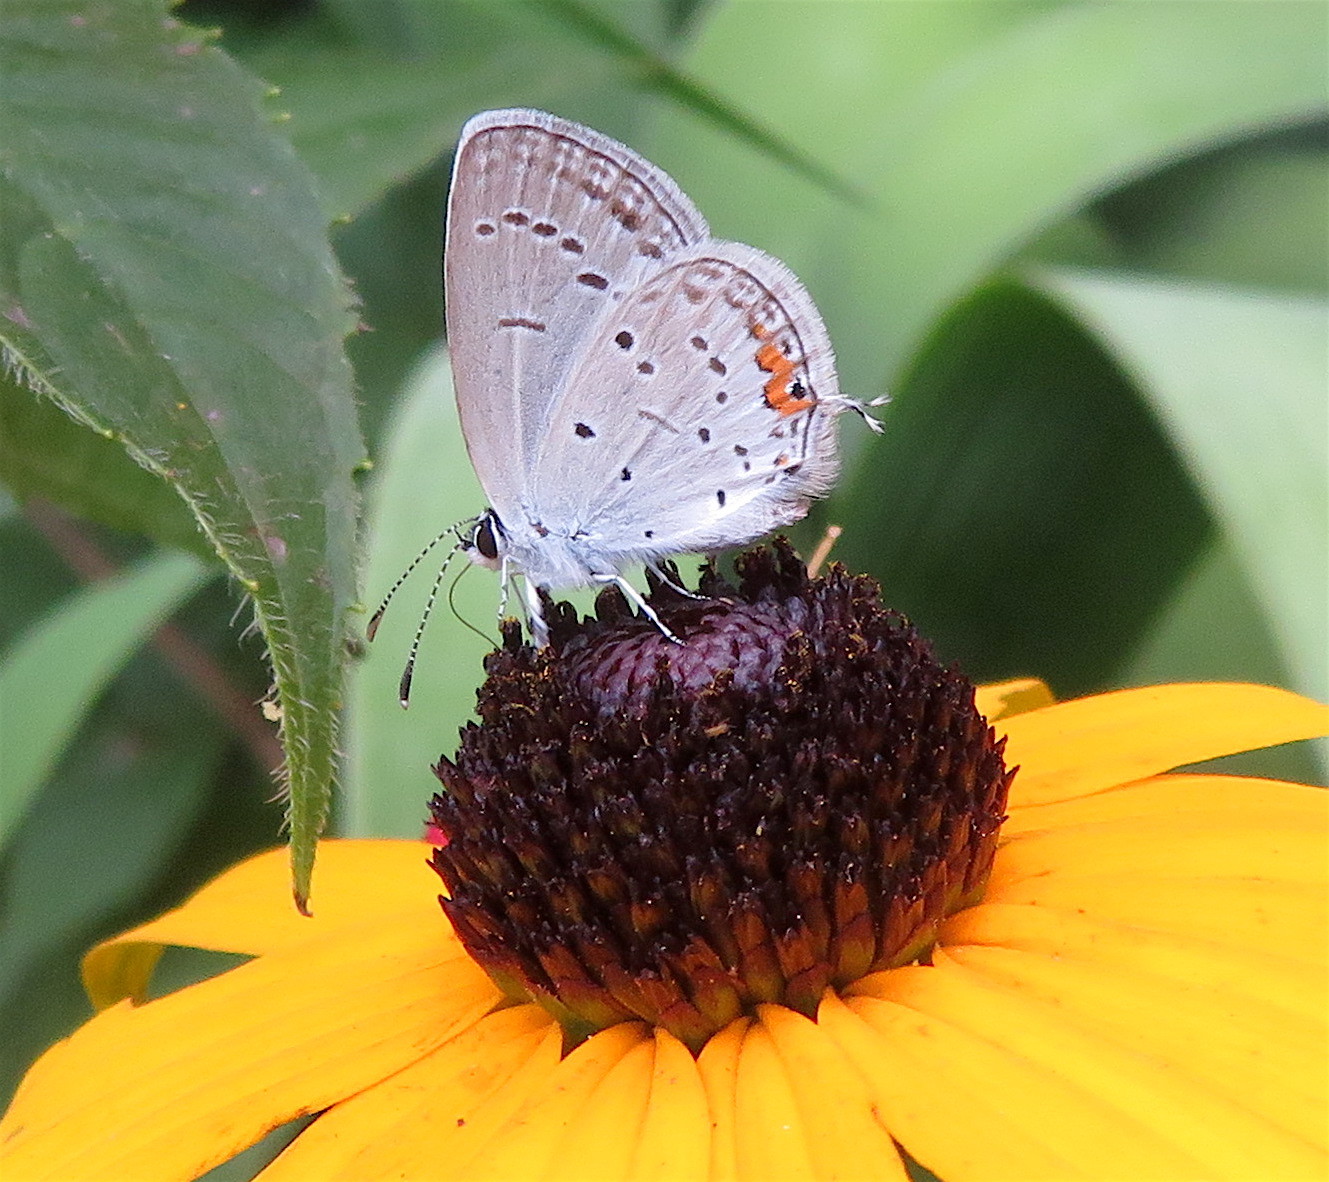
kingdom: Animalia
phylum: Arthropoda
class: Insecta
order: Lepidoptera
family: Lycaenidae
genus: Elkalyce
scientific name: Elkalyce comyntas
